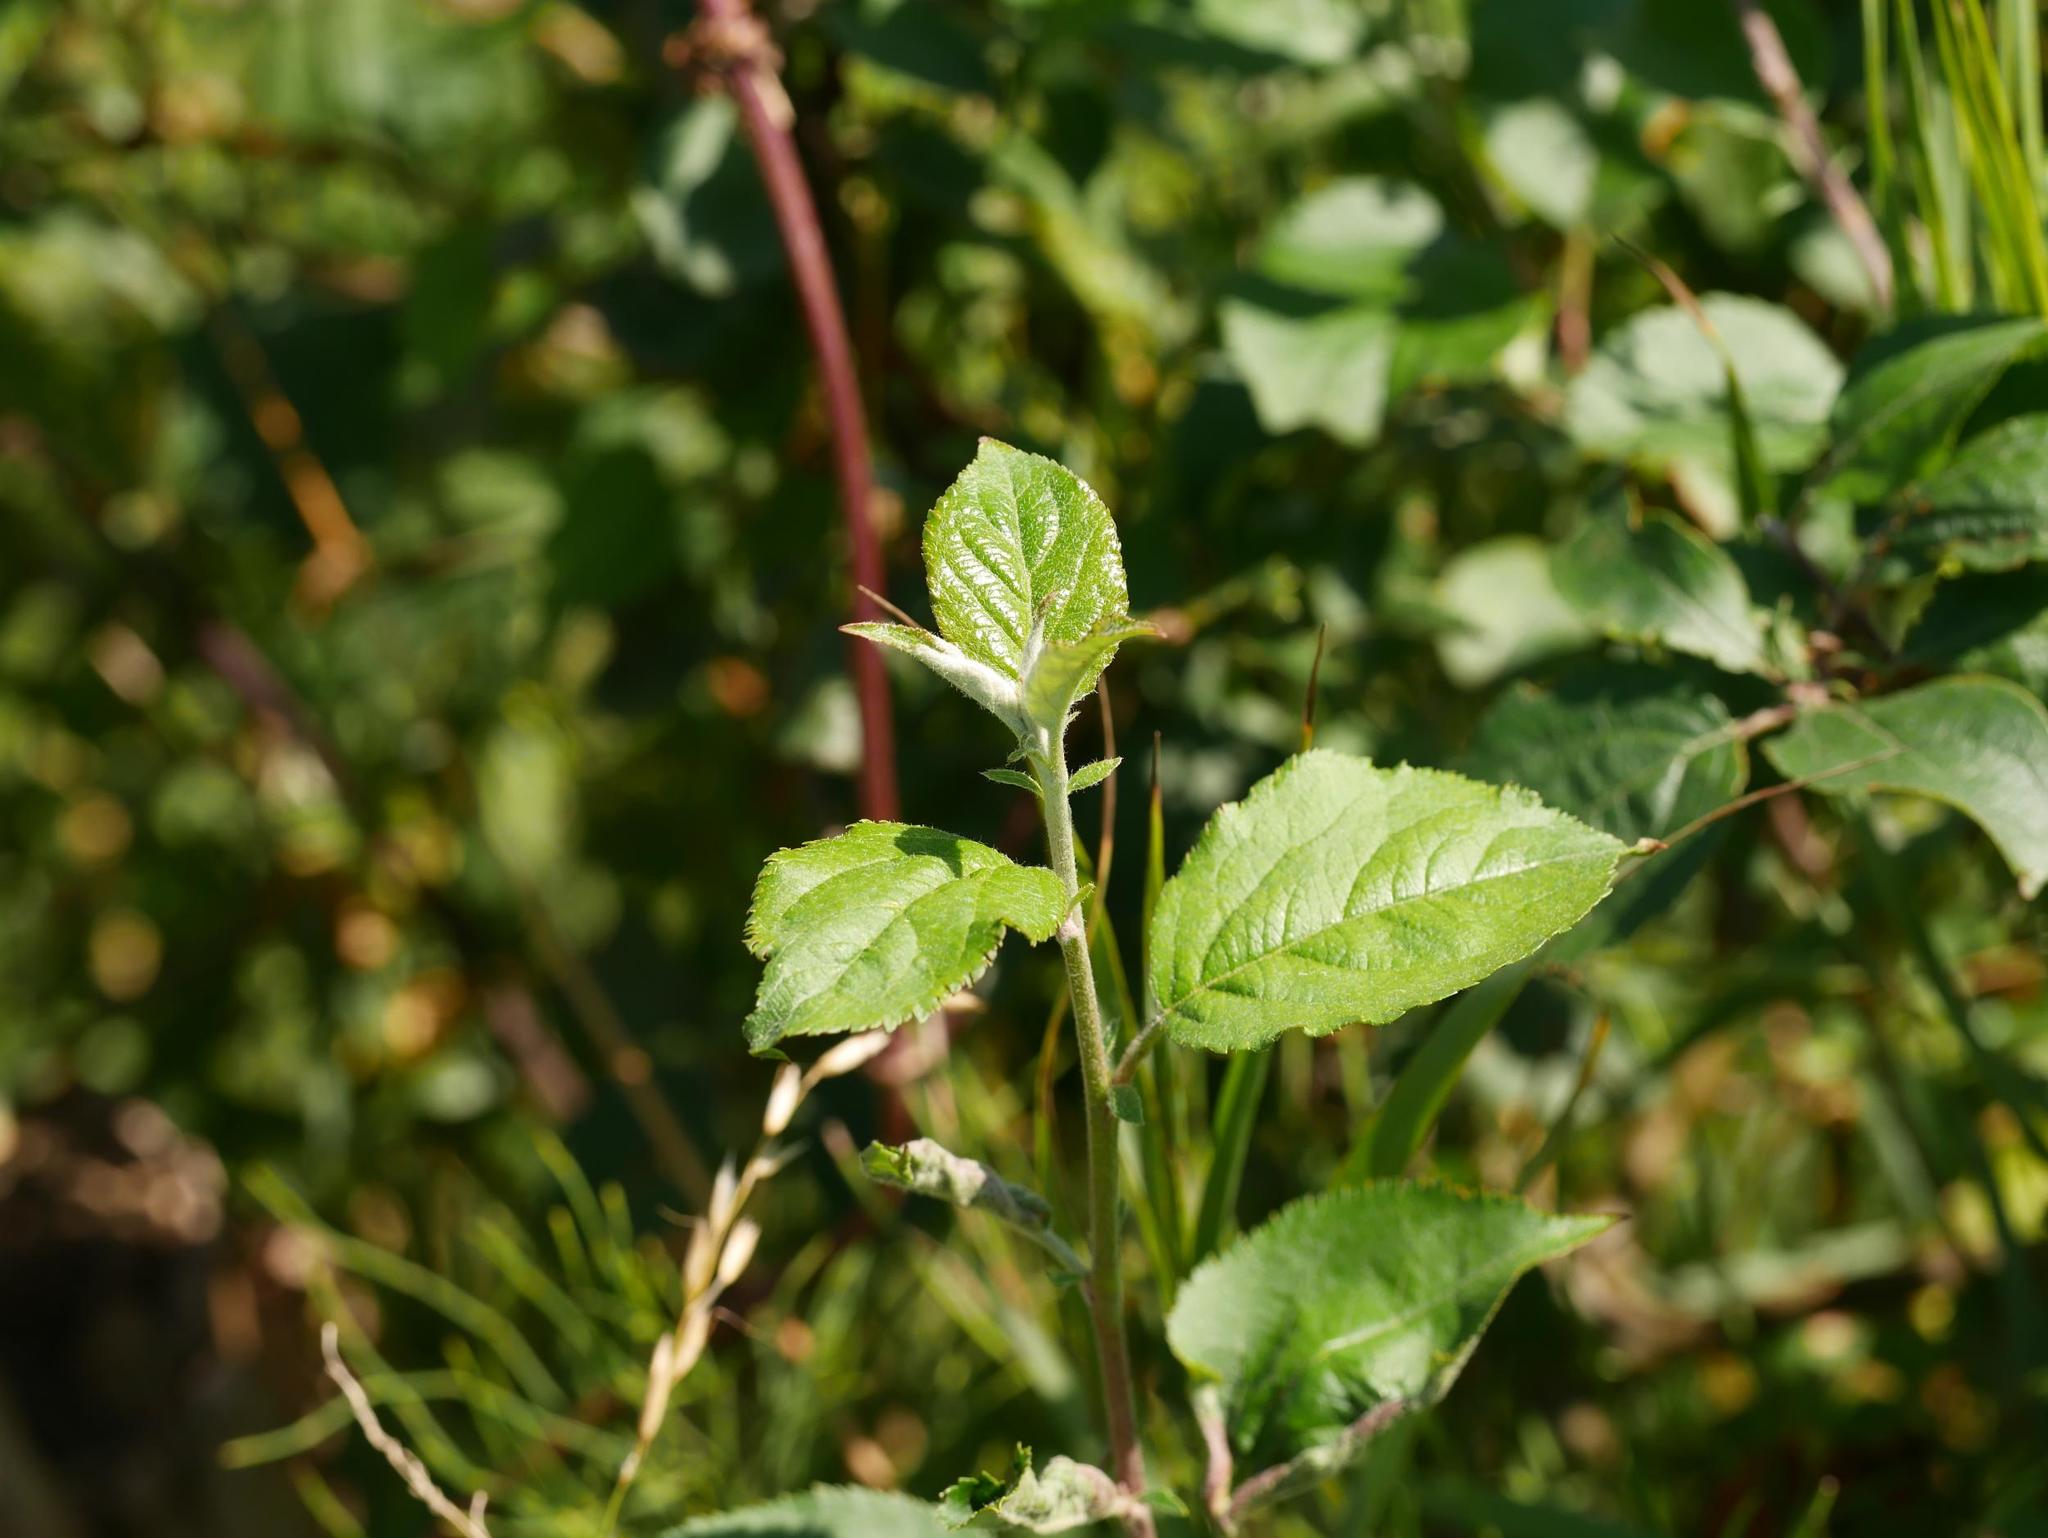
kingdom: Plantae
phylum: Tracheophyta
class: Magnoliopsida
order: Rosales
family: Rosaceae
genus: Malus
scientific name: Malus domestica
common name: Apple
